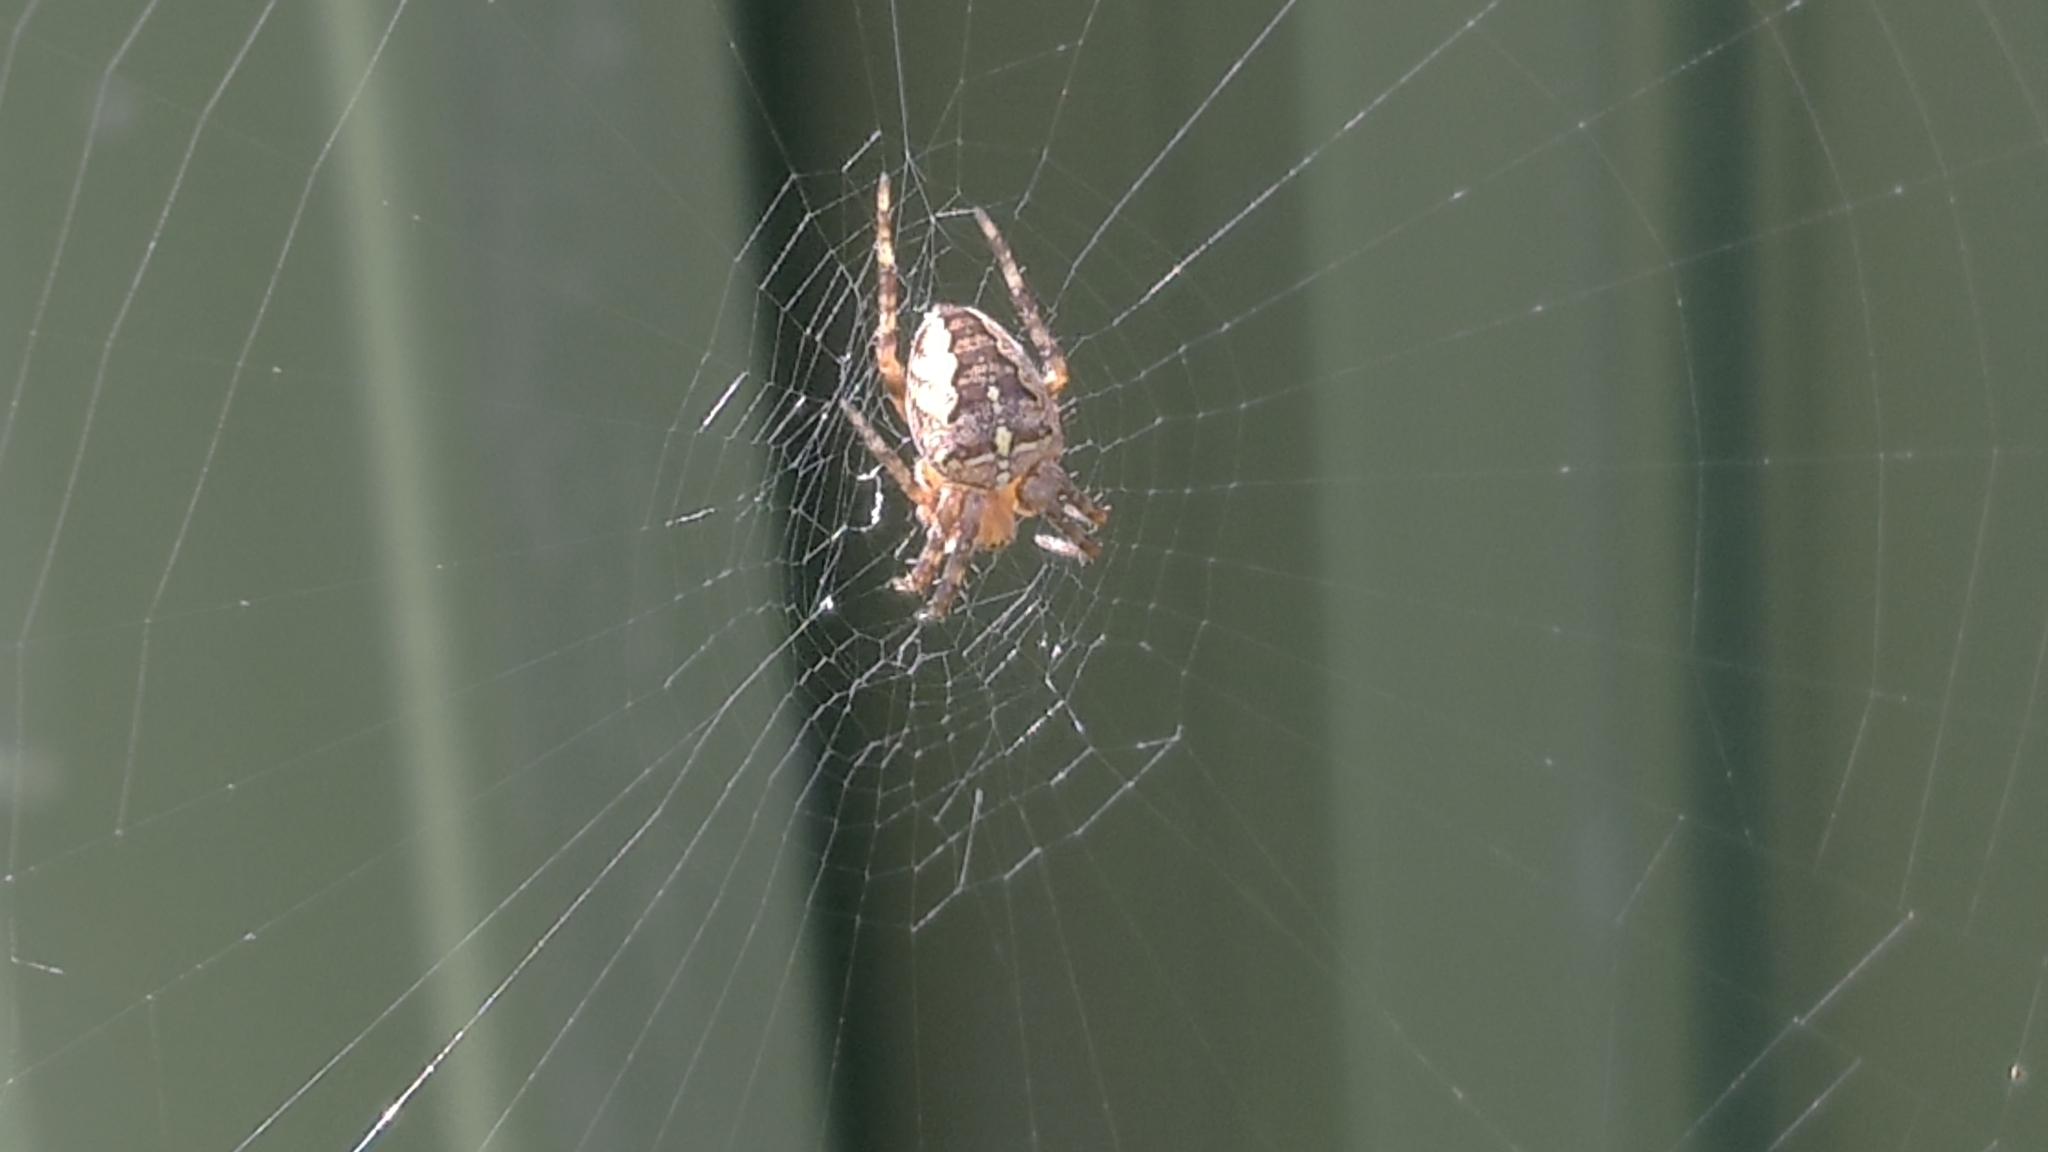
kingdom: Animalia
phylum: Arthropoda
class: Arachnida
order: Araneae
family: Araneidae
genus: Araneus
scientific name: Araneus diadematus
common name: Cross orbweaver
